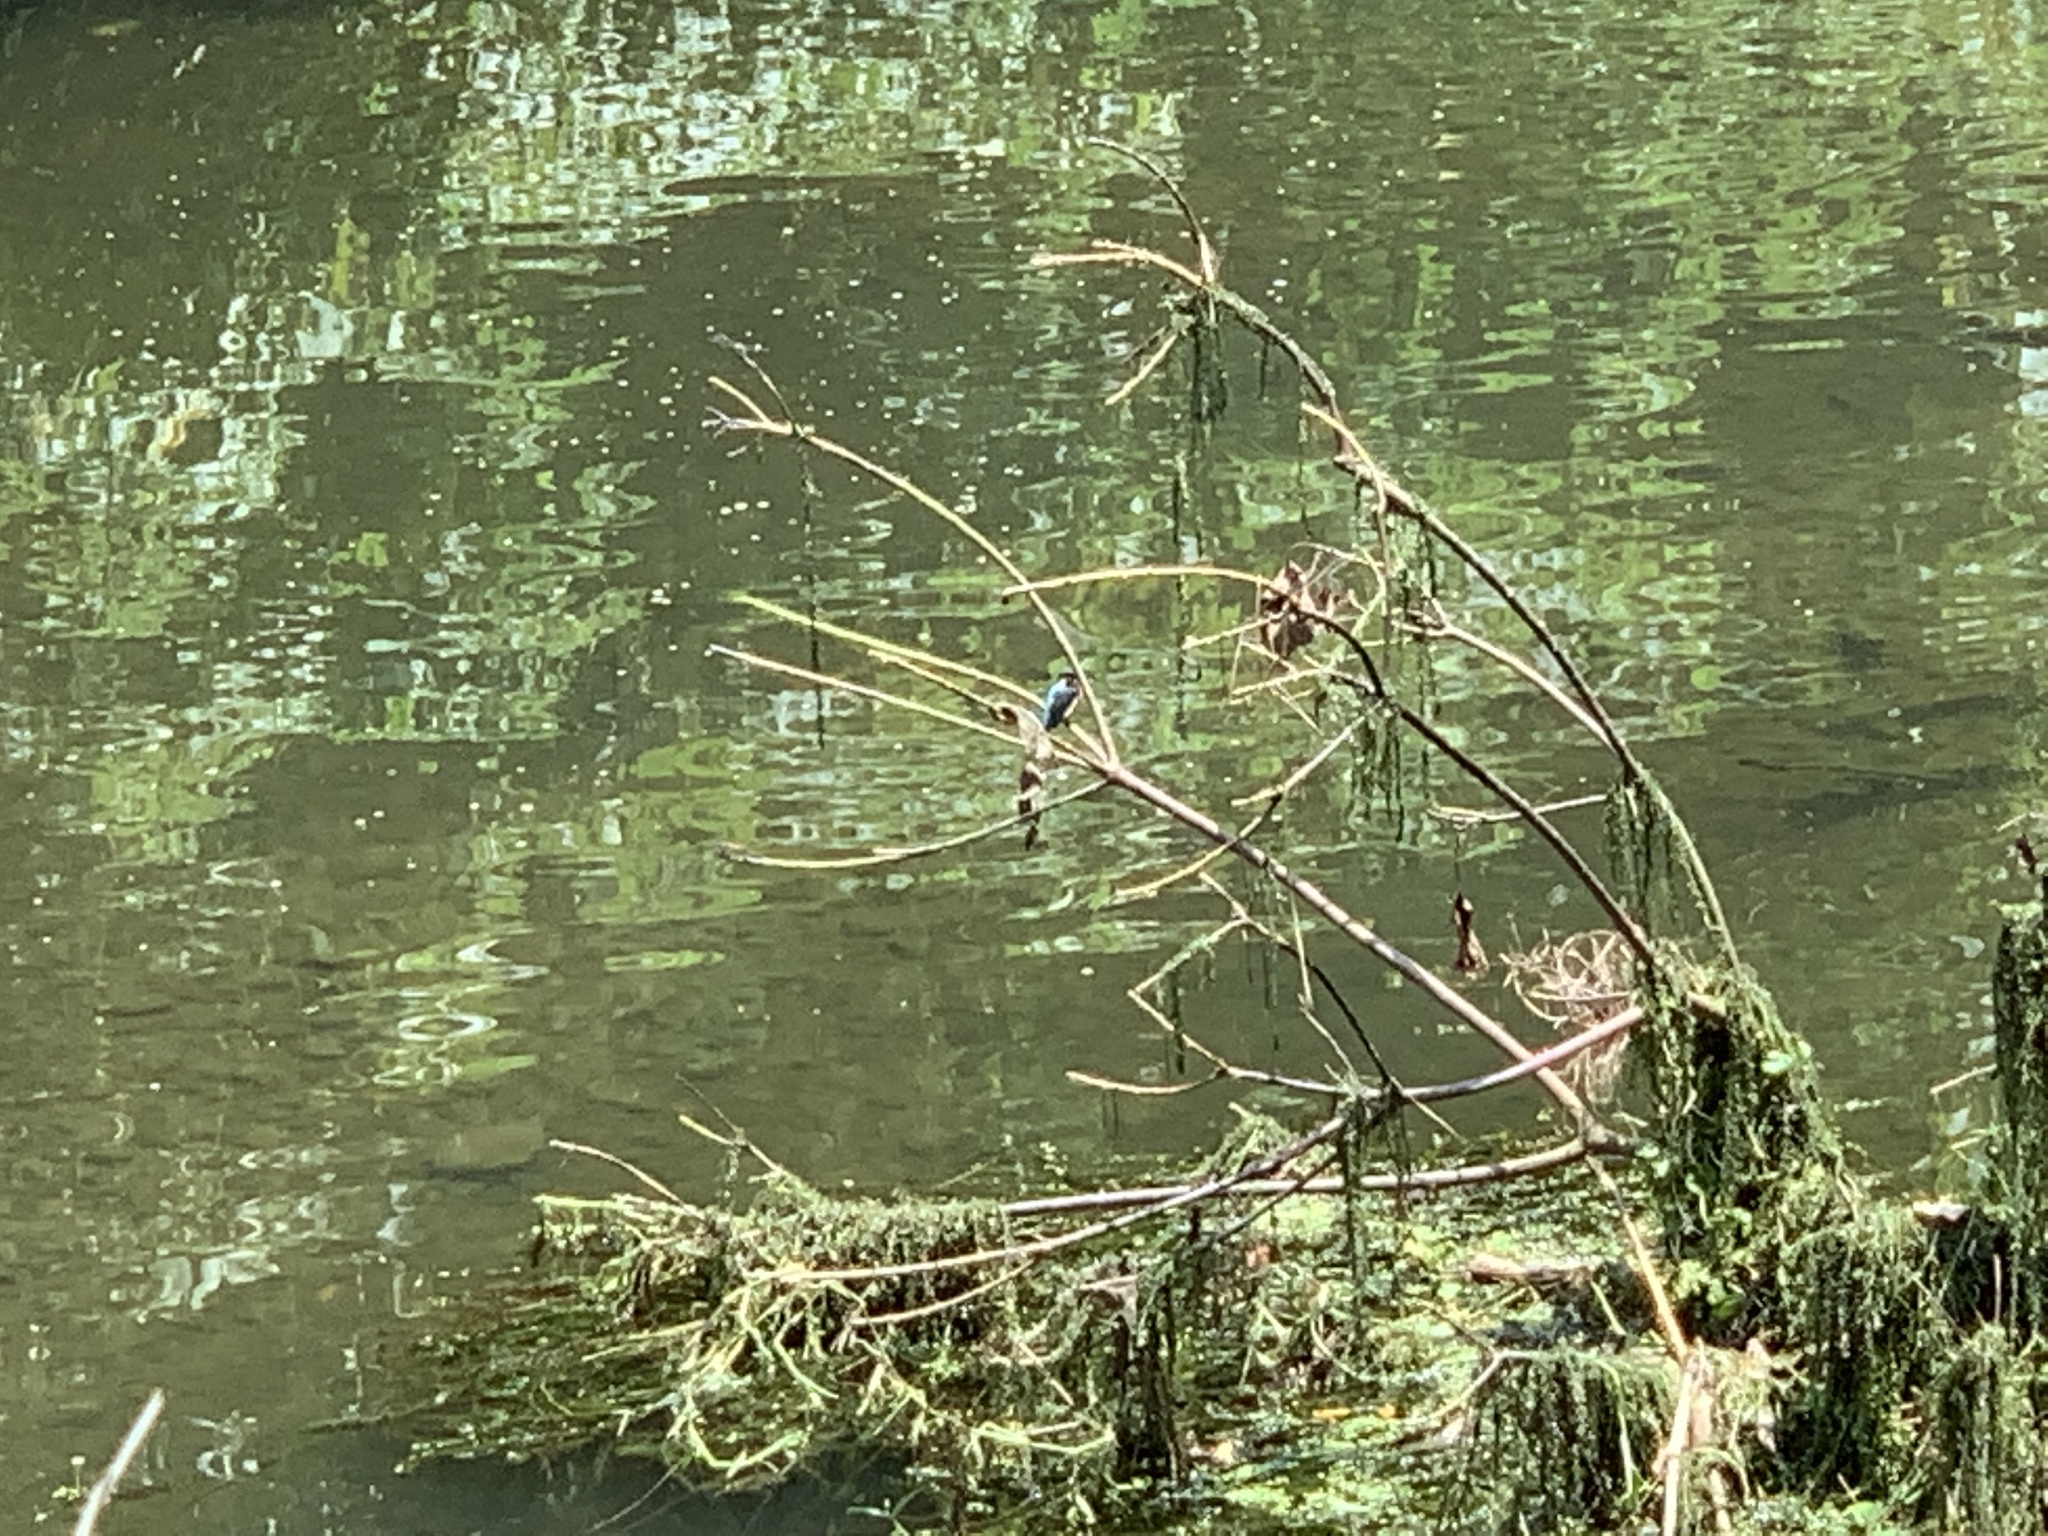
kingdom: Animalia
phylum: Chordata
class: Aves
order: Coraciiformes
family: Alcedinidae
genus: Alcedo
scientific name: Alcedo atthis
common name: Common kingfisher
